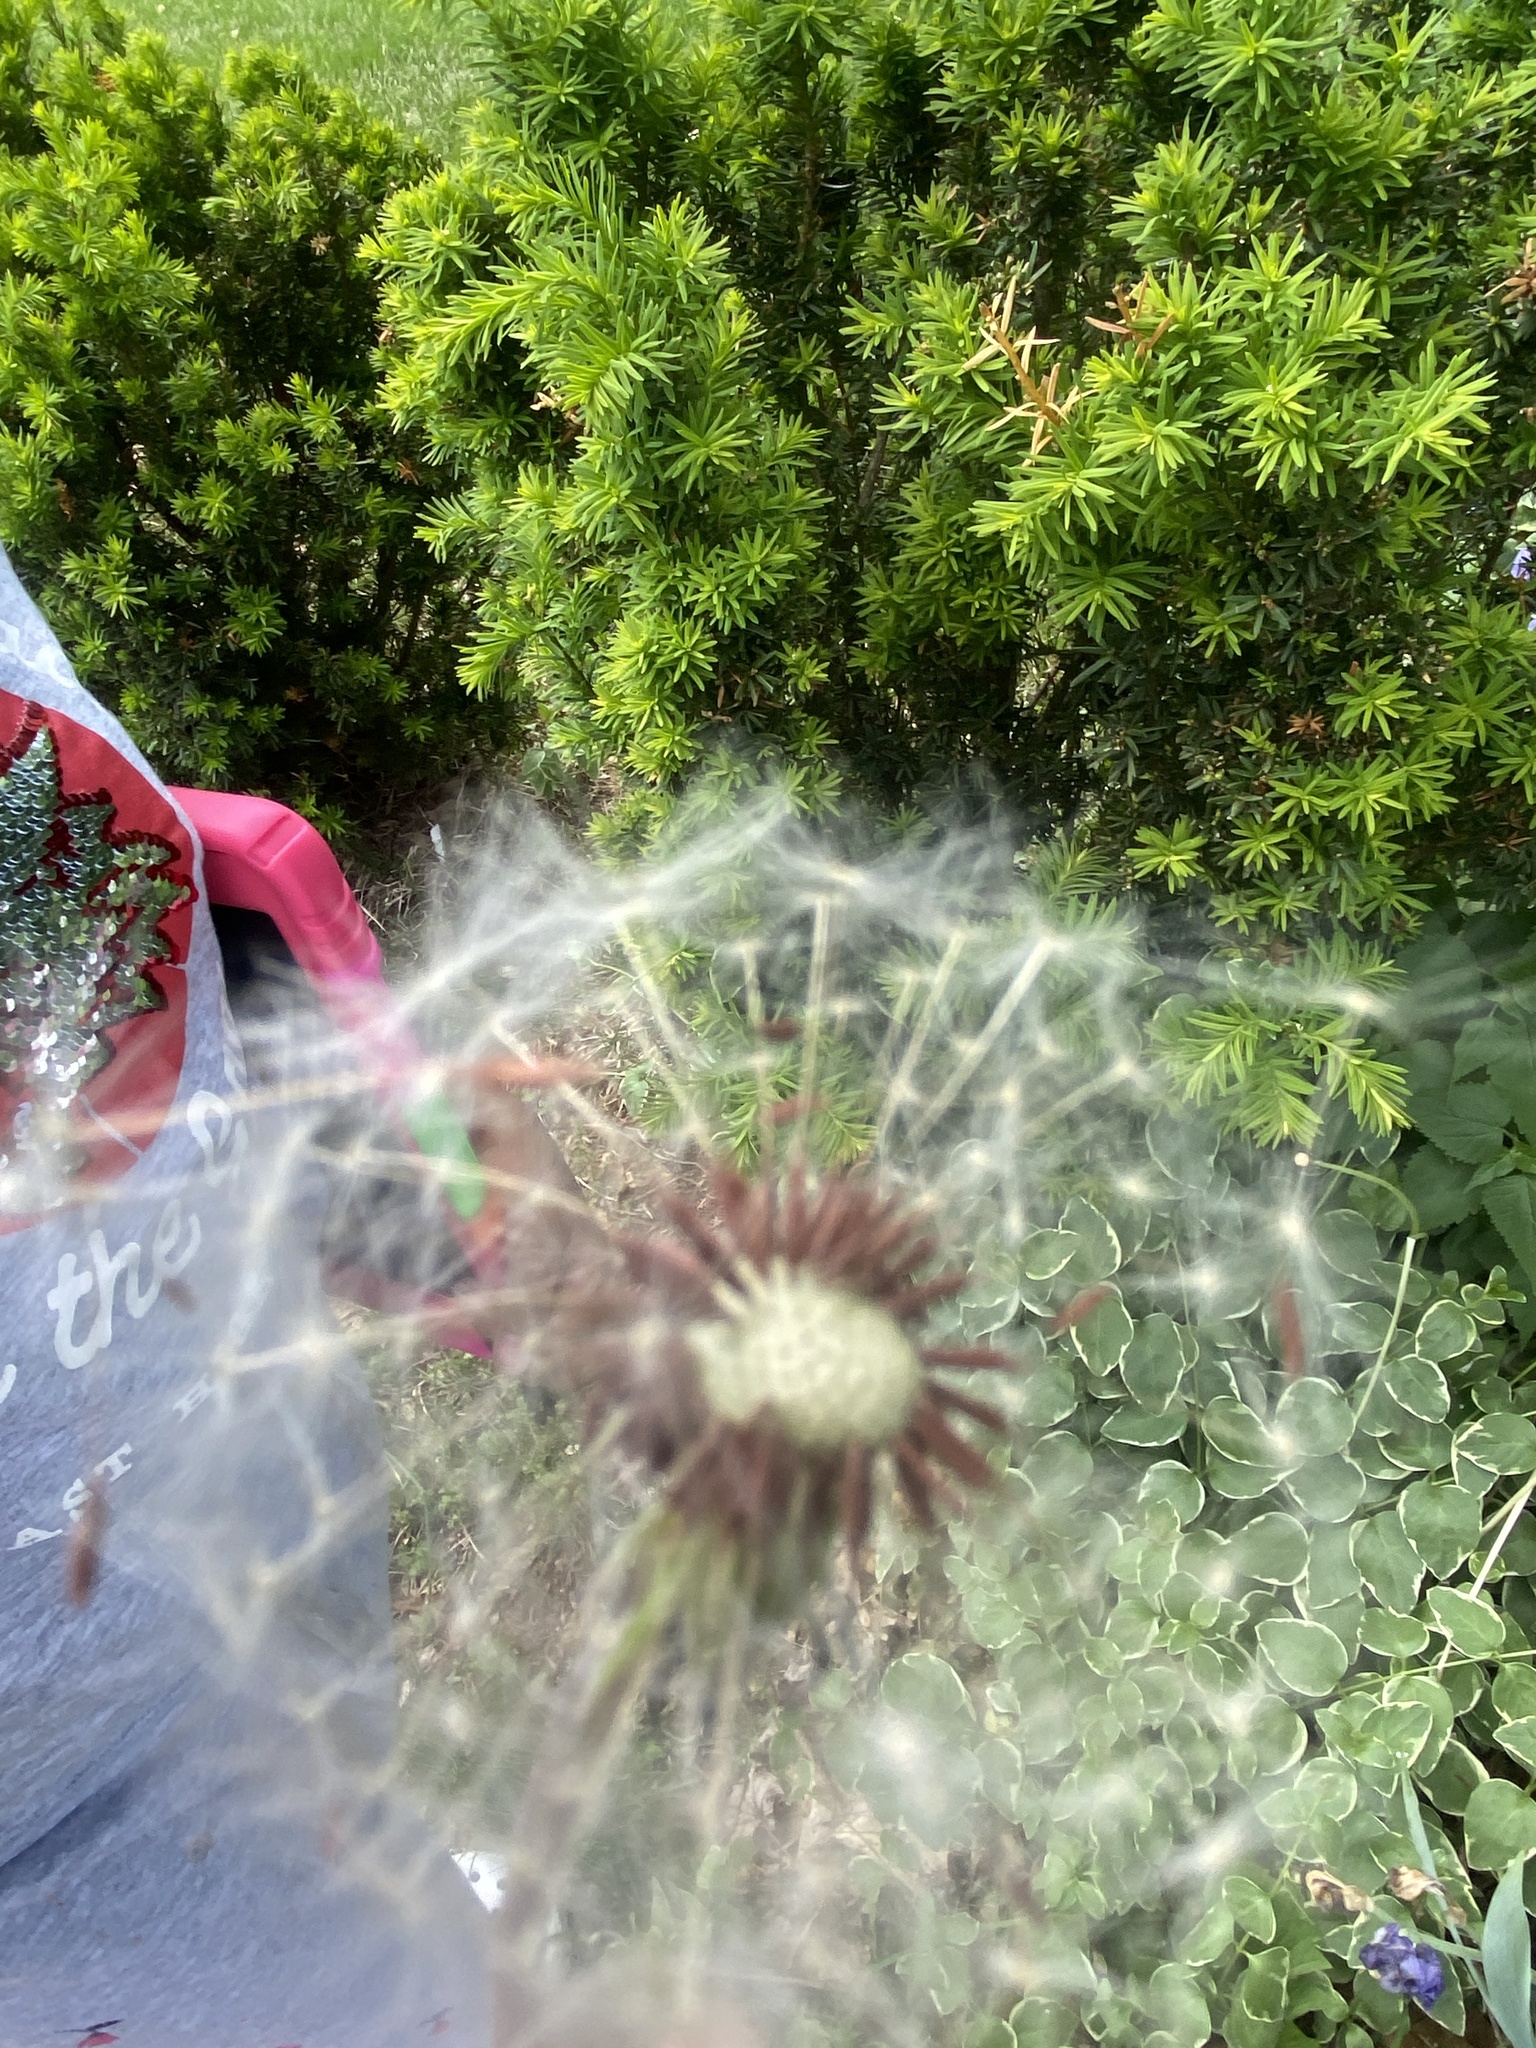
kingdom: Plantae
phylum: Tracheophyta
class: Magnoliopsida
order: Asterales
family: Asteraceae
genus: Taraxacum
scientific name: Taraxacum officinale
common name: Common dandelion
